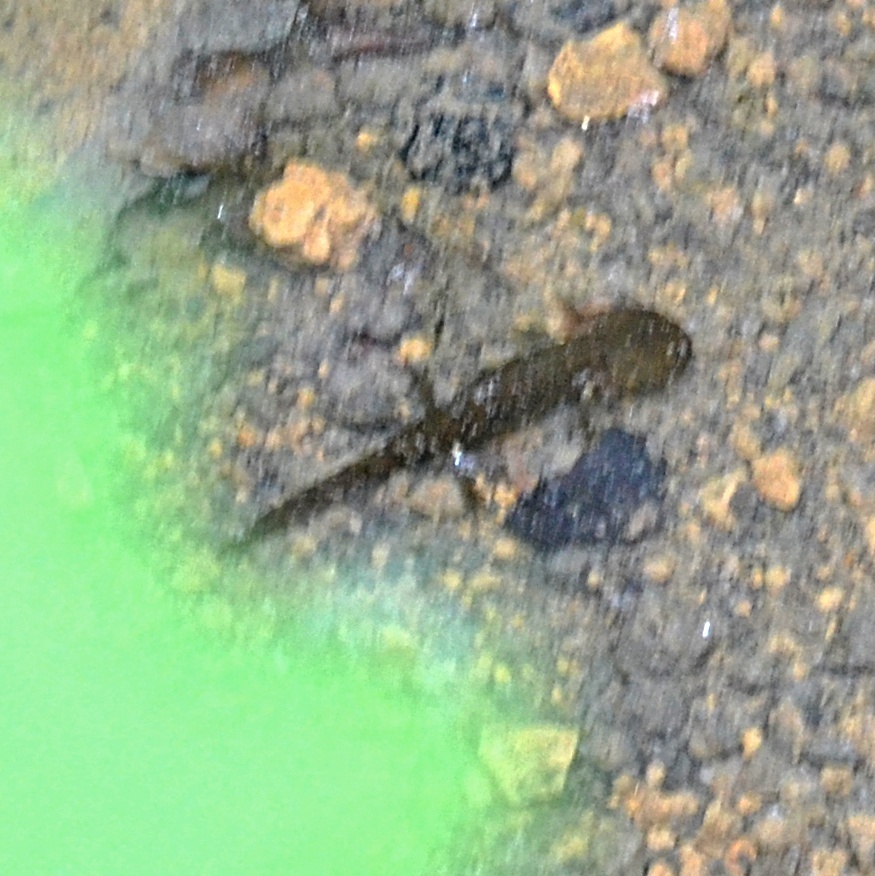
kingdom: Animalia
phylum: Chordata
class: Amphibia
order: Caudata
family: Salamandridae
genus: Salamandra
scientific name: Salamandra salamandra
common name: Fire salamander
